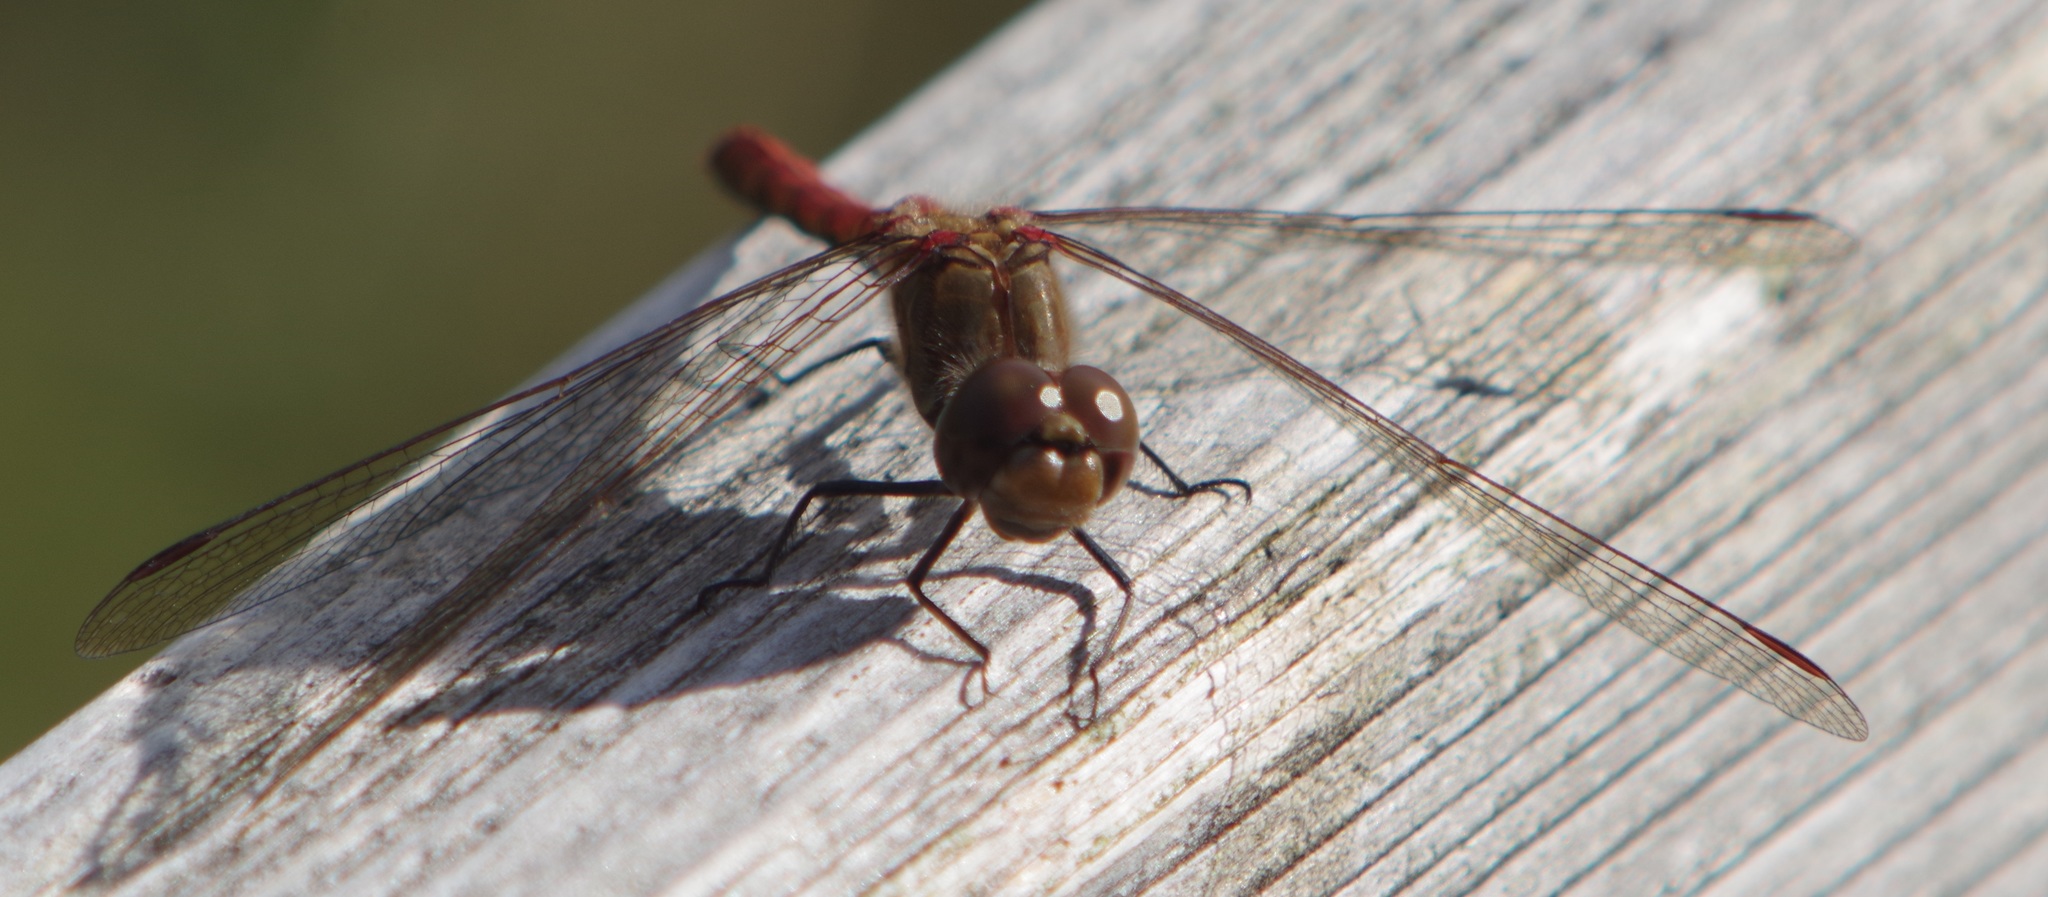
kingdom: Animalia
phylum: Arthropoda
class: Insecta
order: Odonata
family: Libellulidae
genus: Sympetrum
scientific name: Sympetrum striolatum
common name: Common darter
